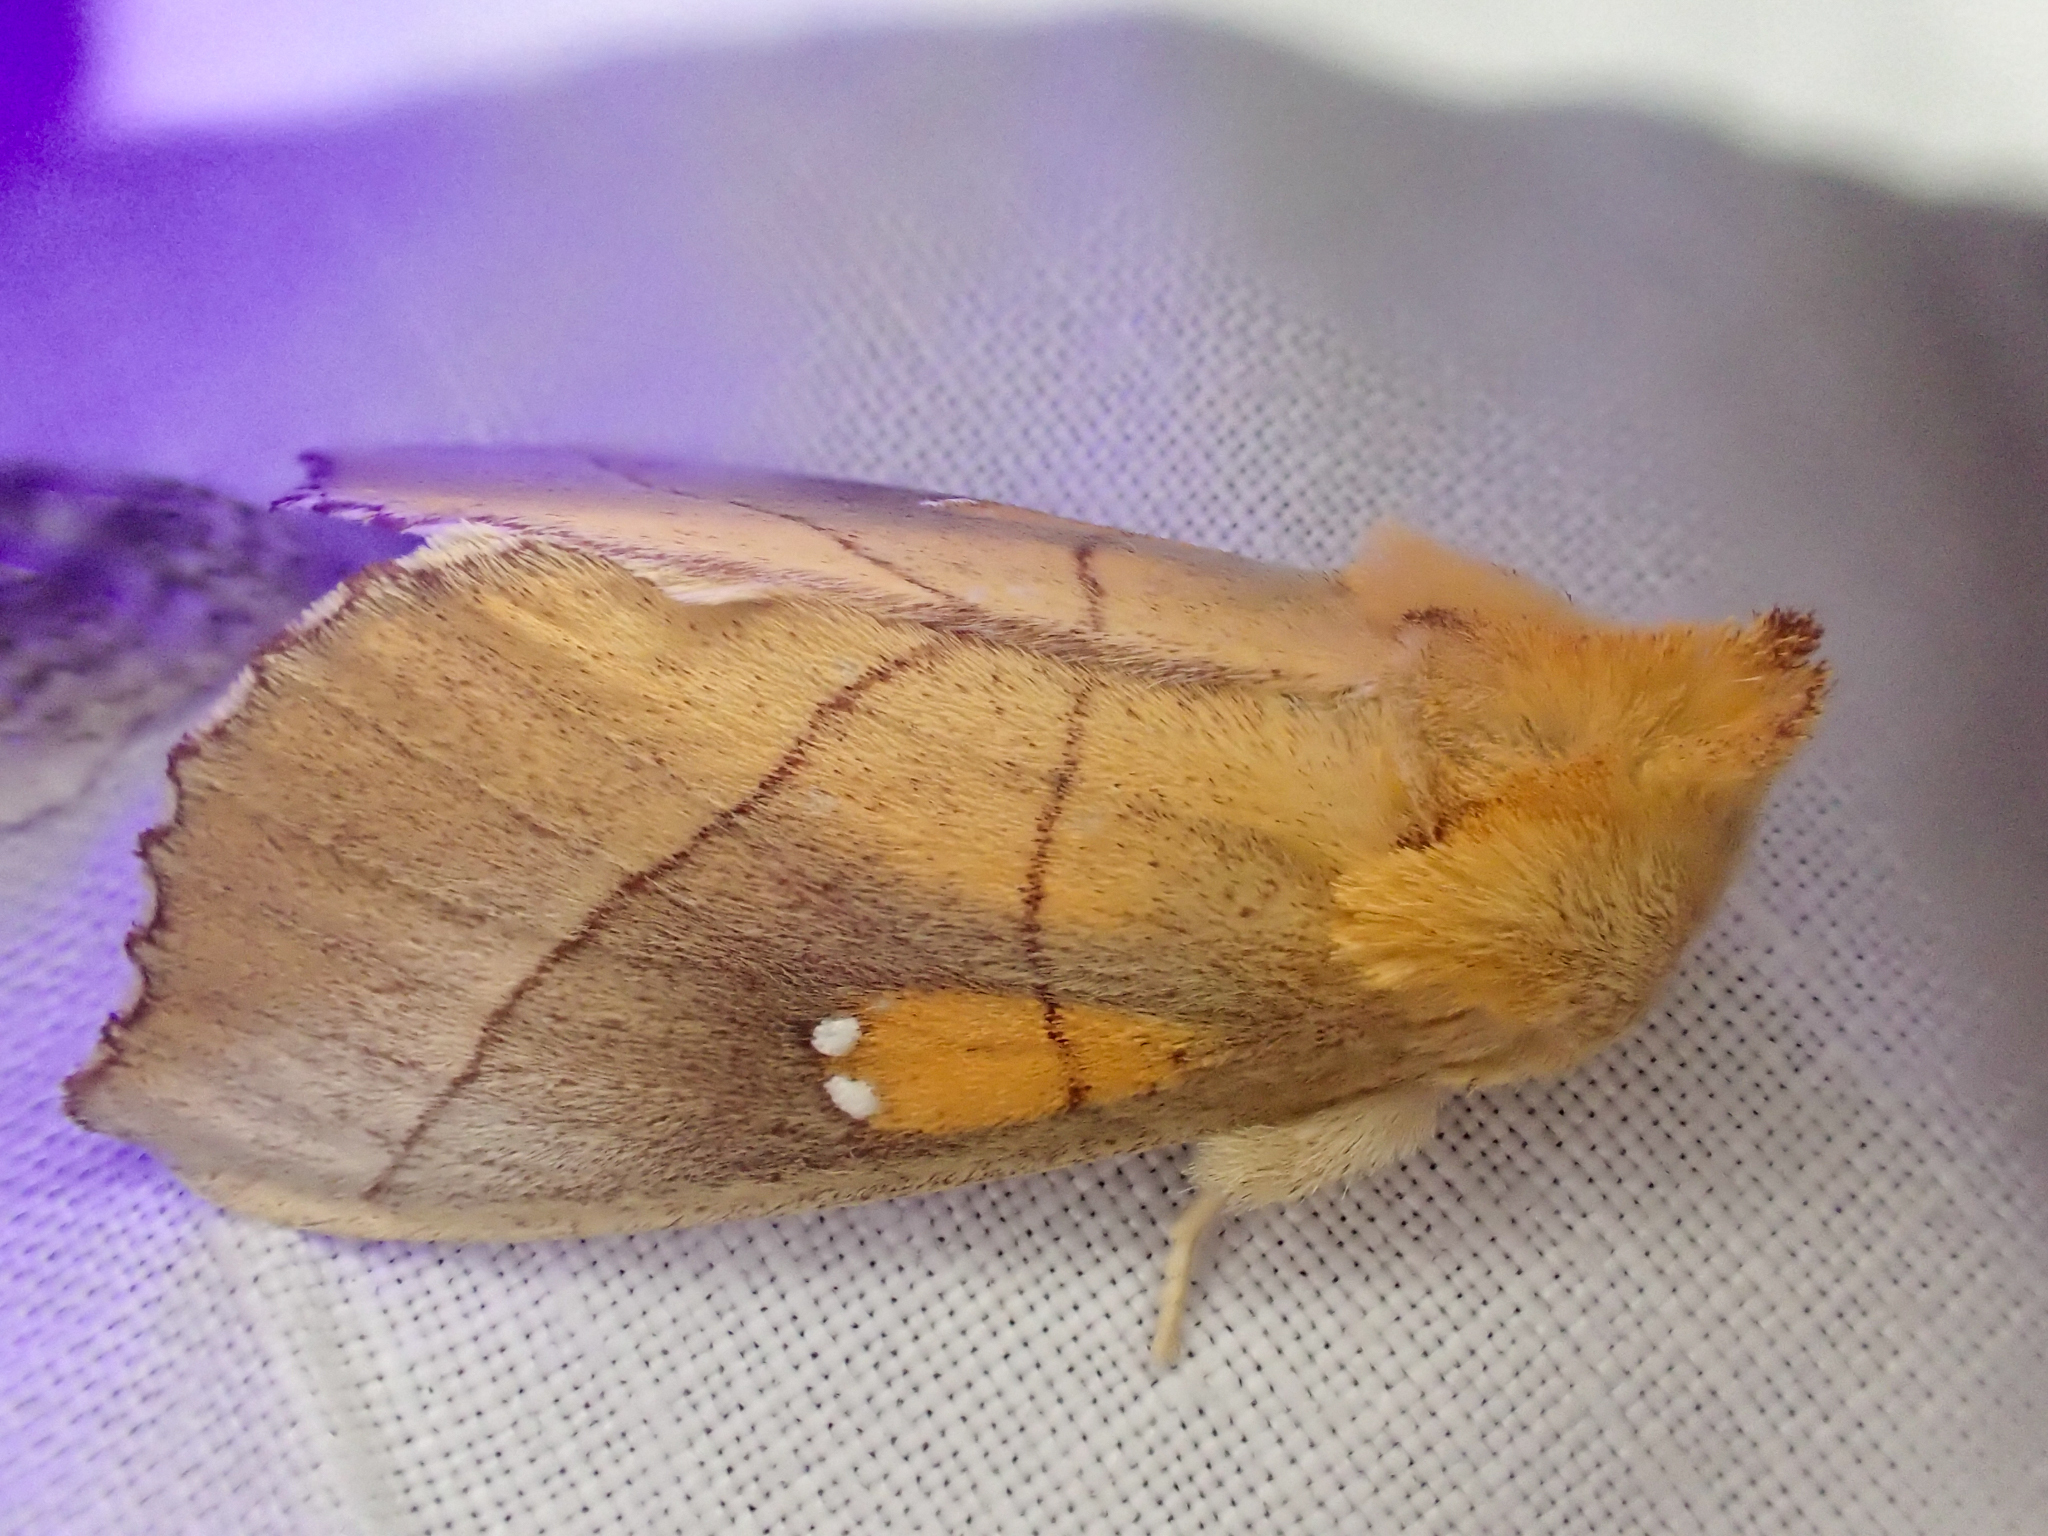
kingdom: Animalia
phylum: Arthropoda
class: Insecta
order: Lepidoptera
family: Notodontidae
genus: Nadata
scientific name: Nadata gibbosa
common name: White-dotted prominent
